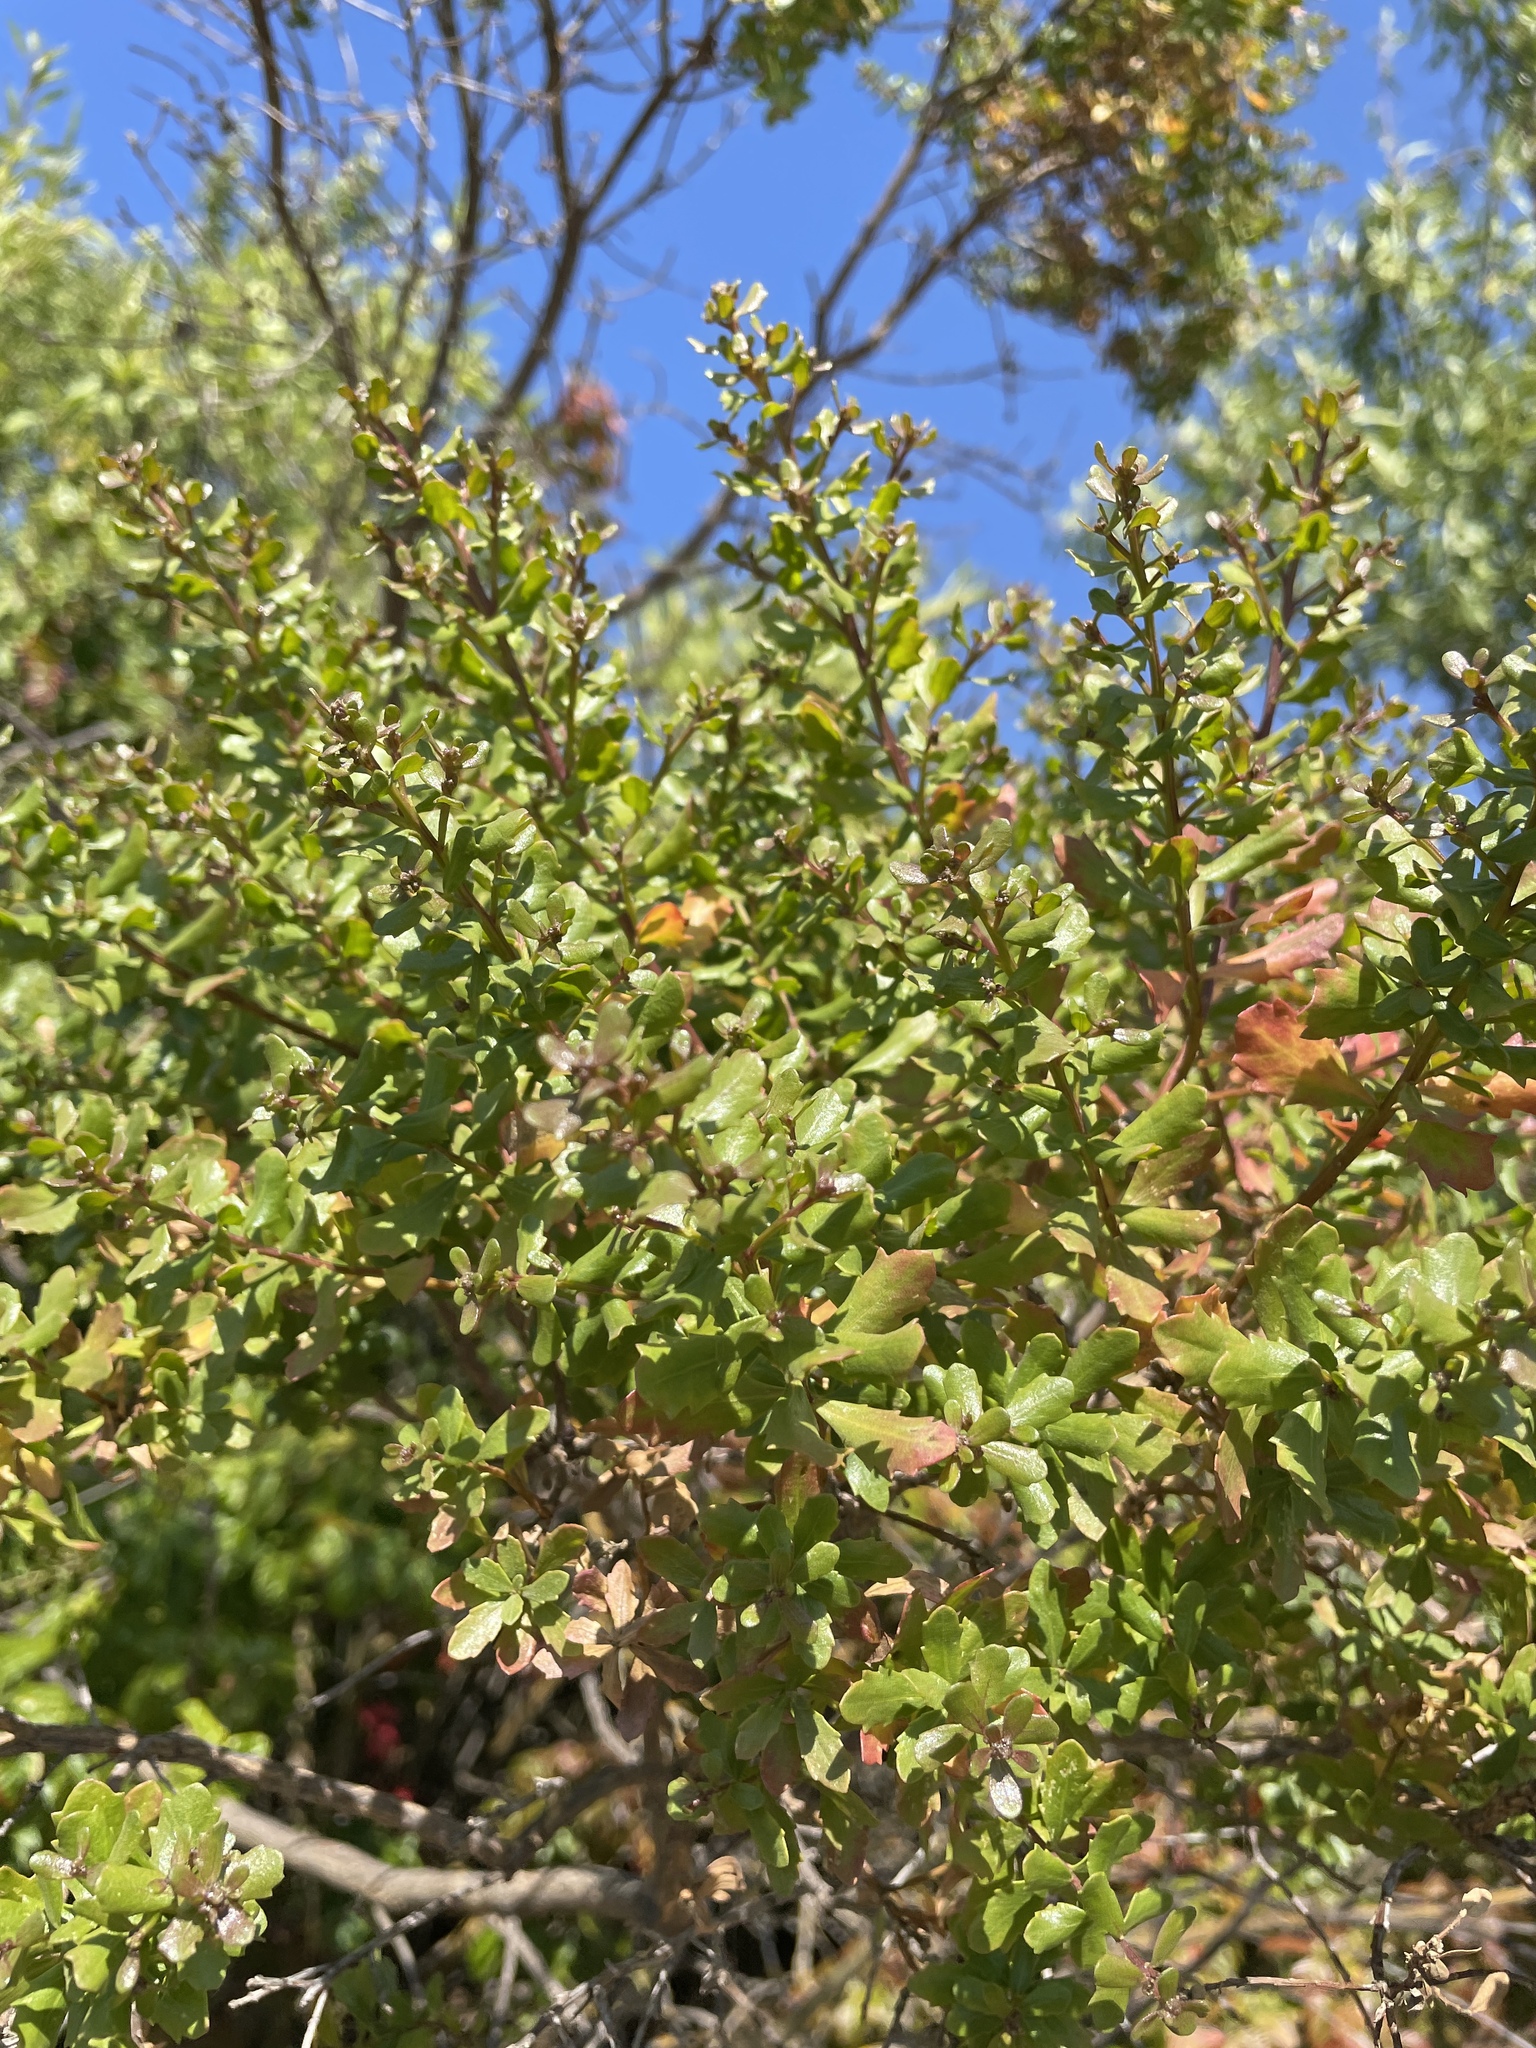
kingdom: Plantae
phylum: Tracheophyta
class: Magnoliopsida
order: Asterales
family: Asteraceae
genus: Baccharis
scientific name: Baccharis pilularis
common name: Coyotebrush
